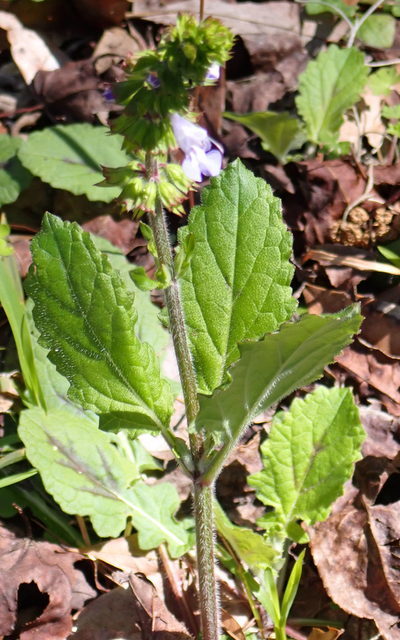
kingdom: Plantae
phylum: Tracheophyta
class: Magnoliopsida
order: Lamiales
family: Lamiaceae
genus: Salvia
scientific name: Salvia lyrata
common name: Cancerweed
